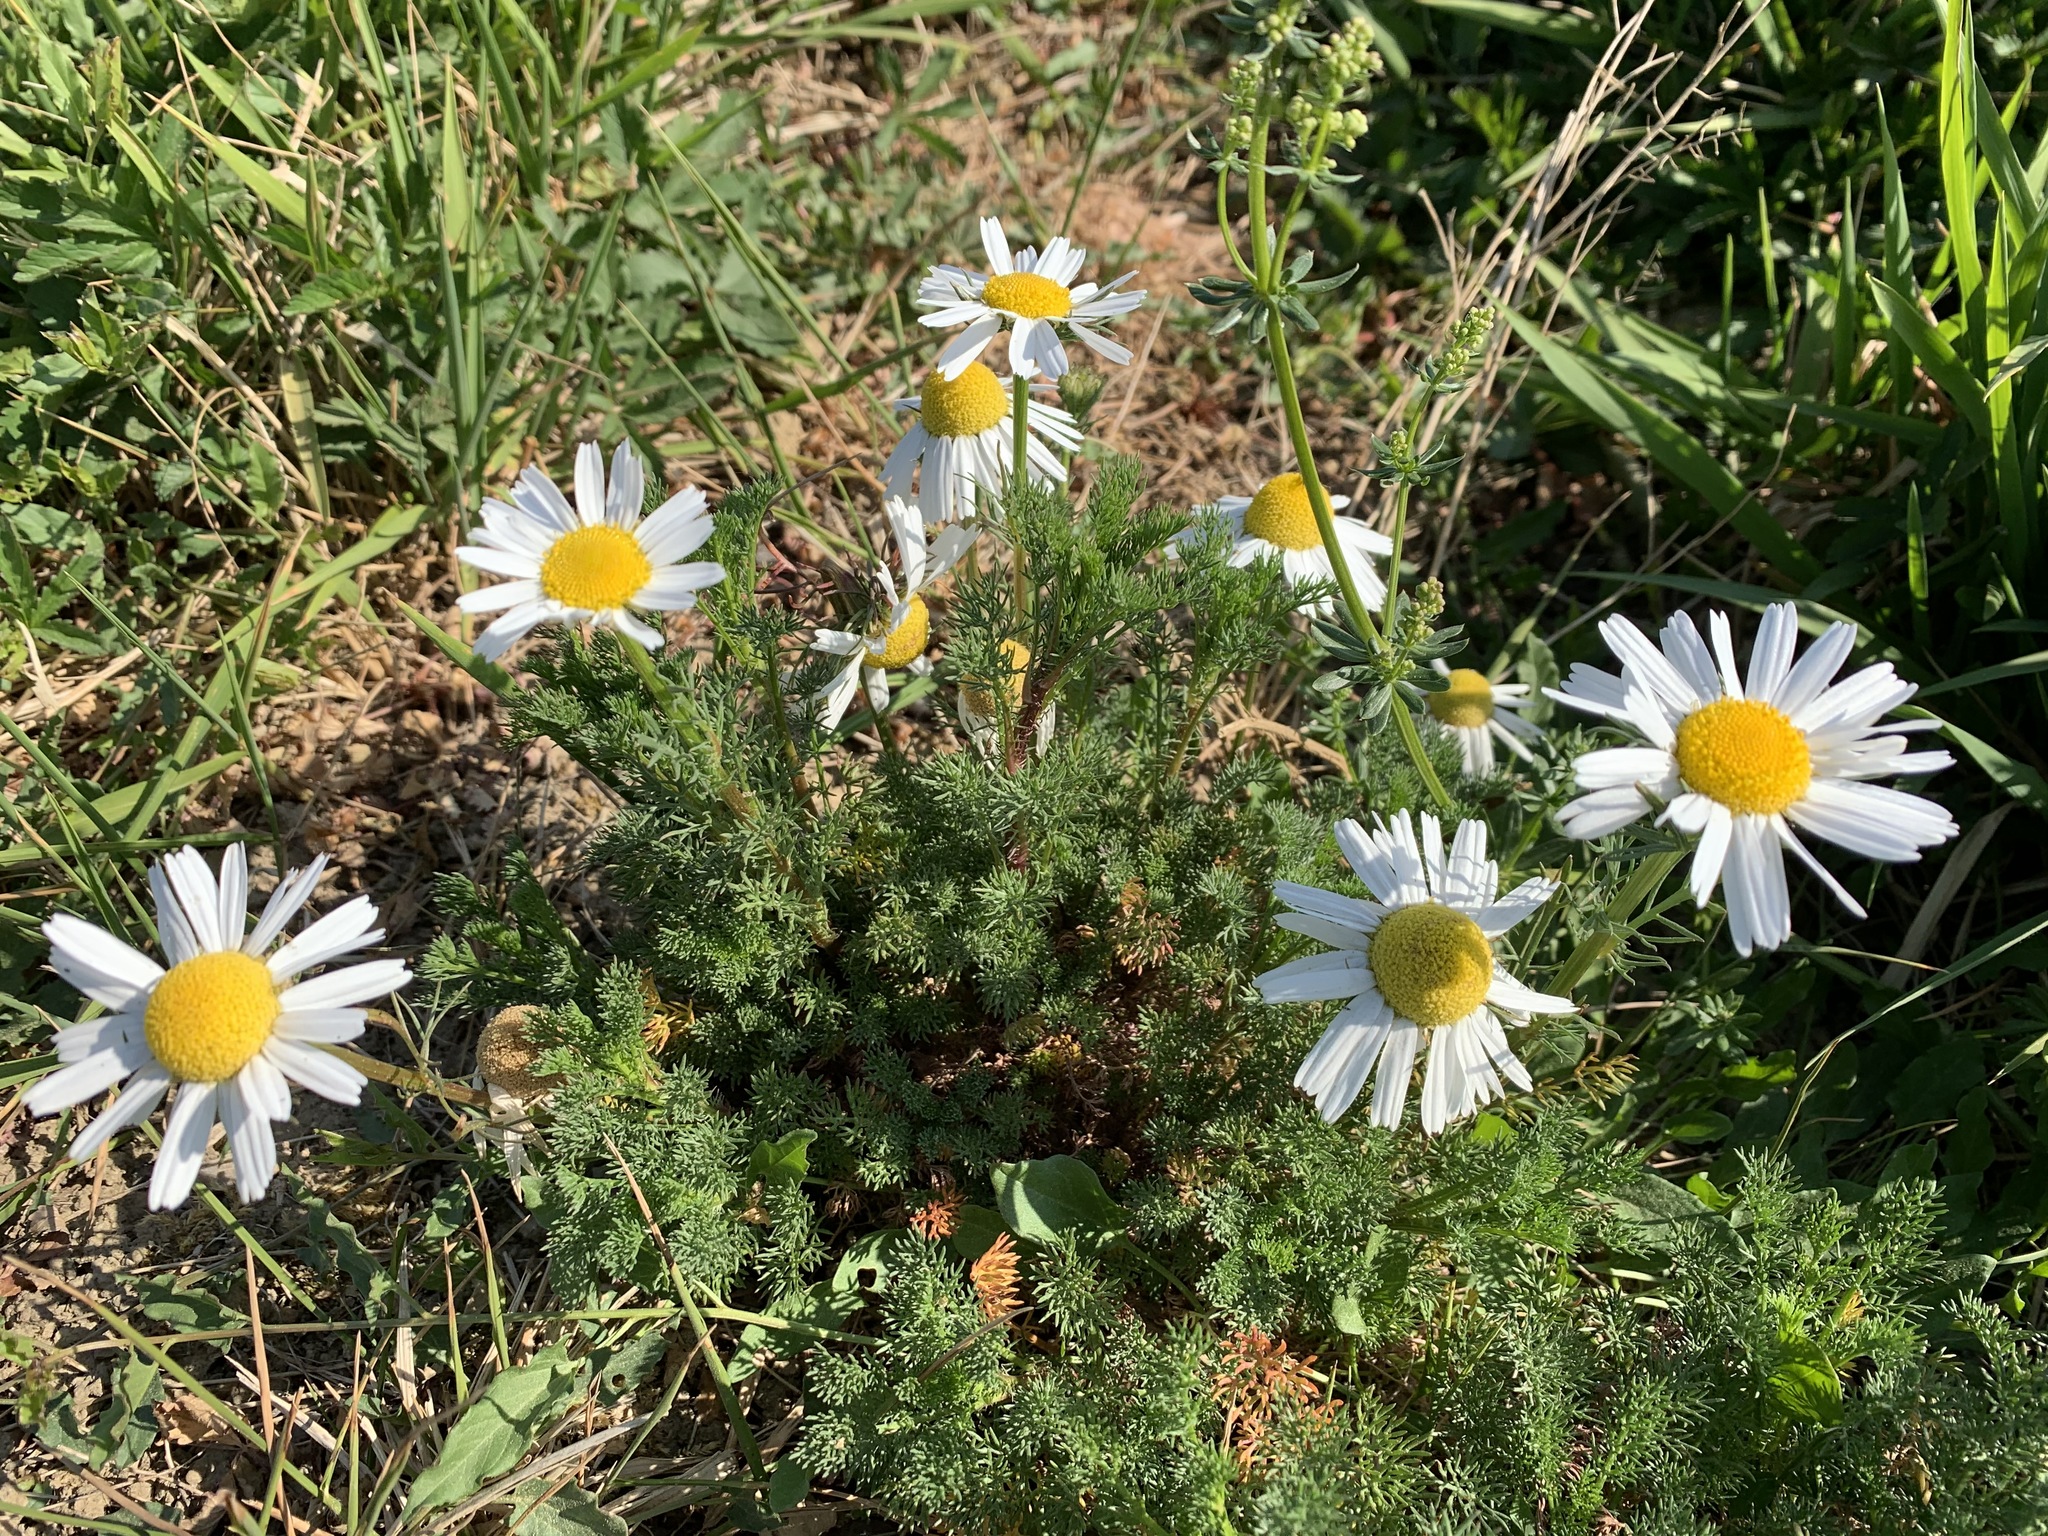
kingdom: Plantae
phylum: Tracheophyta
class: Magnoliopsida
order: Asterales
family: Asteraceae
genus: Matricaria
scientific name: Matricaria chamomilla
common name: Scented mayweed
